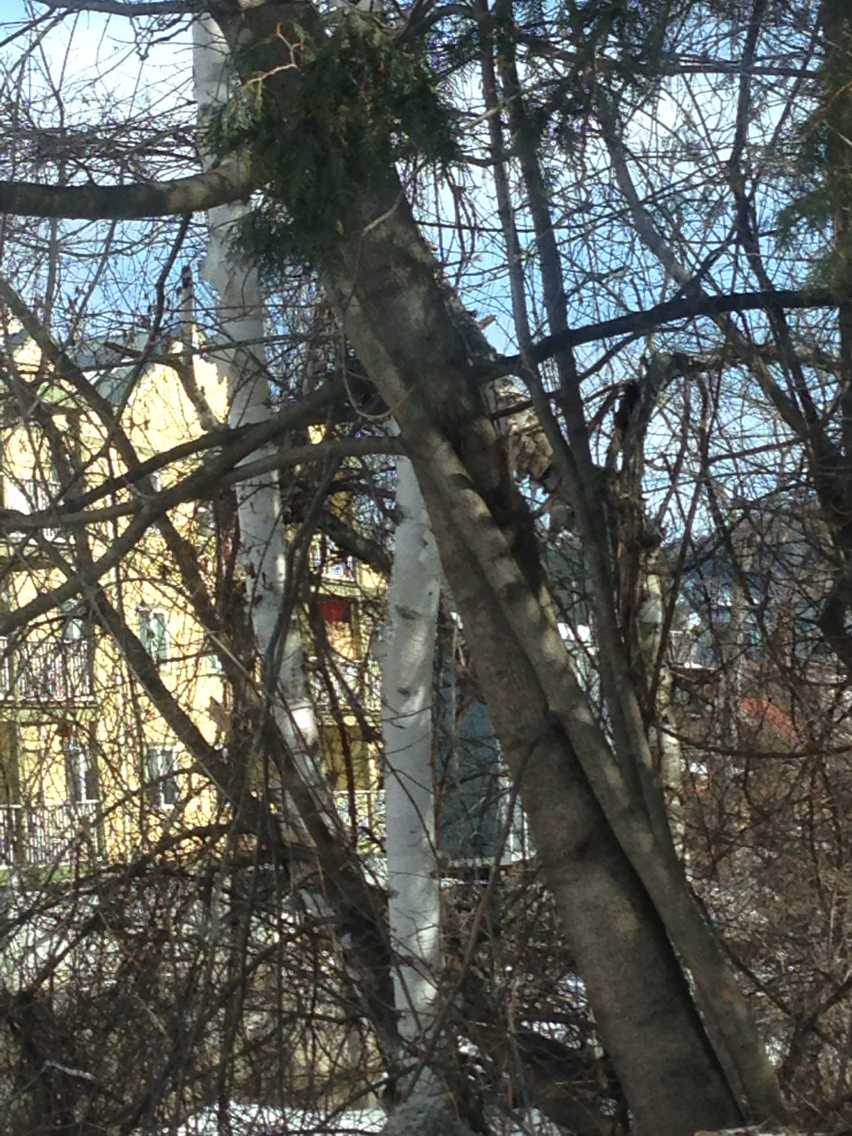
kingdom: Plantae
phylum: Tracheophyta
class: Magnoliopsida
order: Fagales
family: Betulaceae
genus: Betula
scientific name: Betula papyrifera
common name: Paper birch
